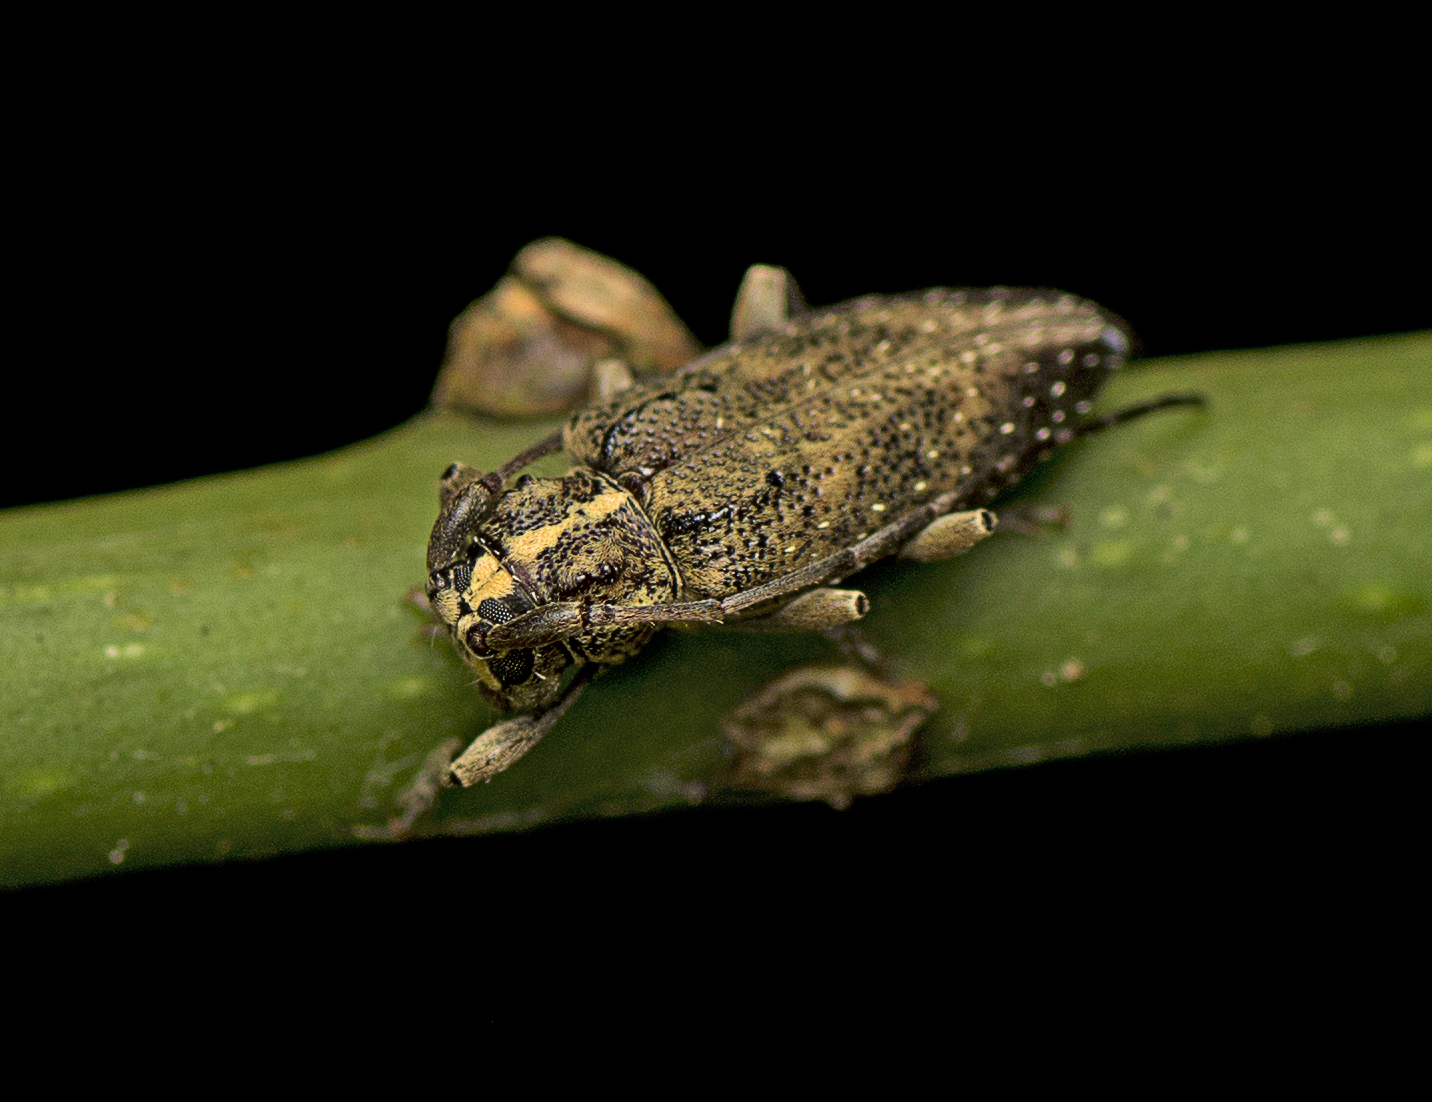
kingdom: Animalia
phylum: Arthropoda
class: Insecta
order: Coleoptera
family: Cerambycidae
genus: Oricopis
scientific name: Oricopis flavolineatus
